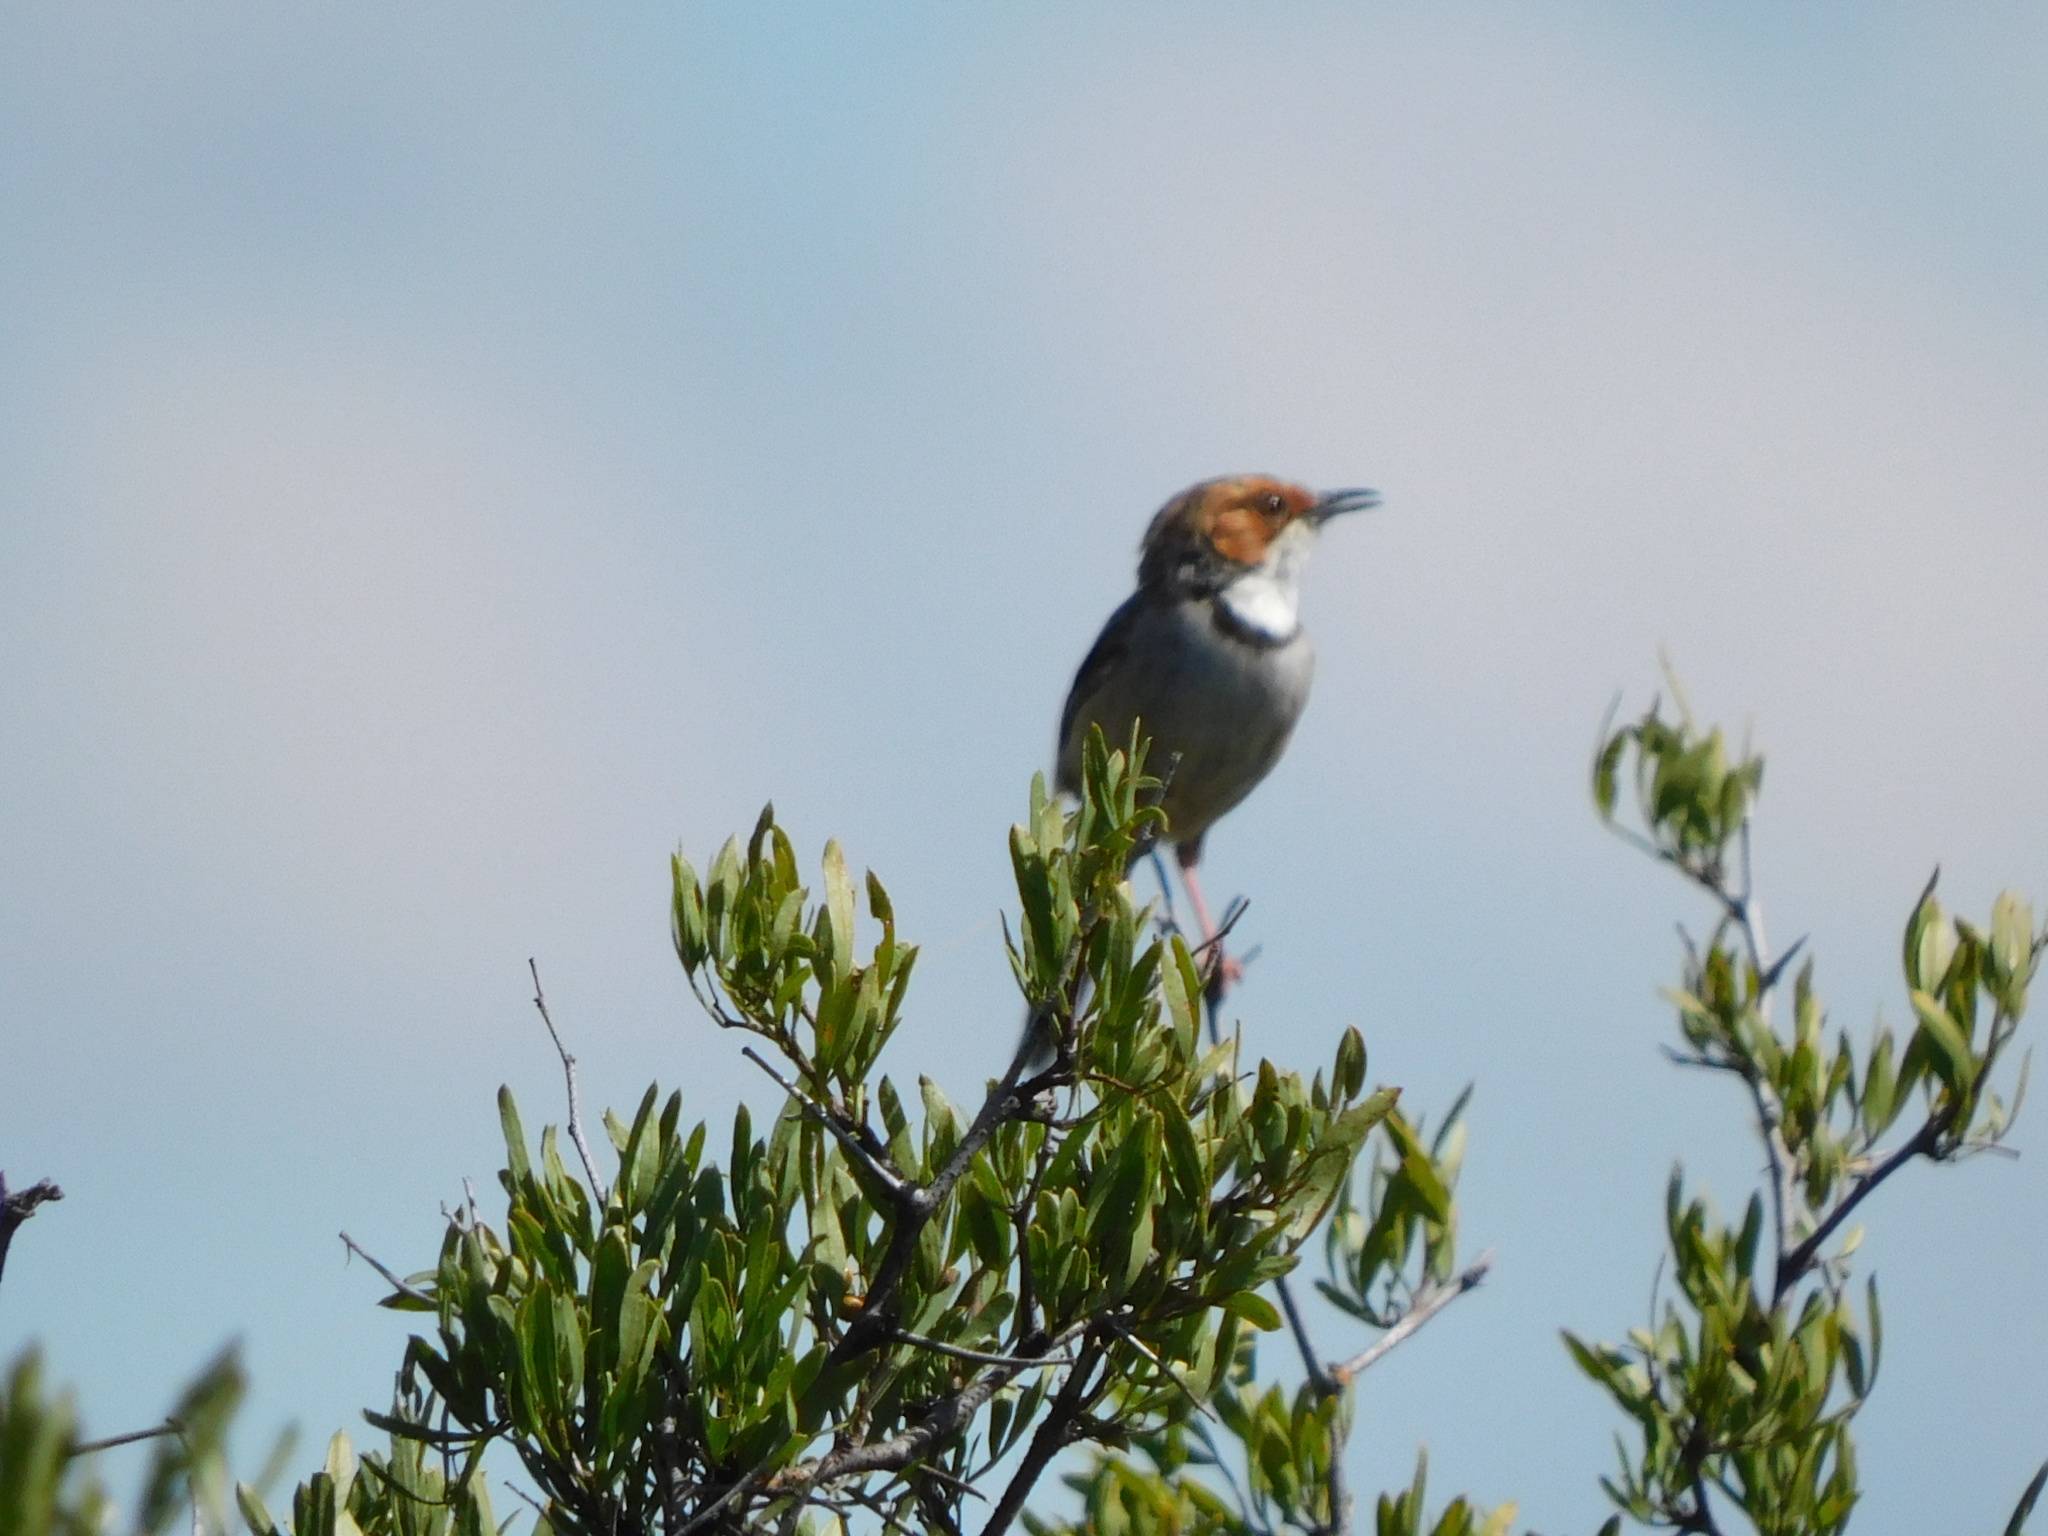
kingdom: Animalia
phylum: Chordata
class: Aves
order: Passeriformes
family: Cisticolidae
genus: Malcorus
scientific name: Malcorus pectoralis
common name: Rufous-eared warbler
